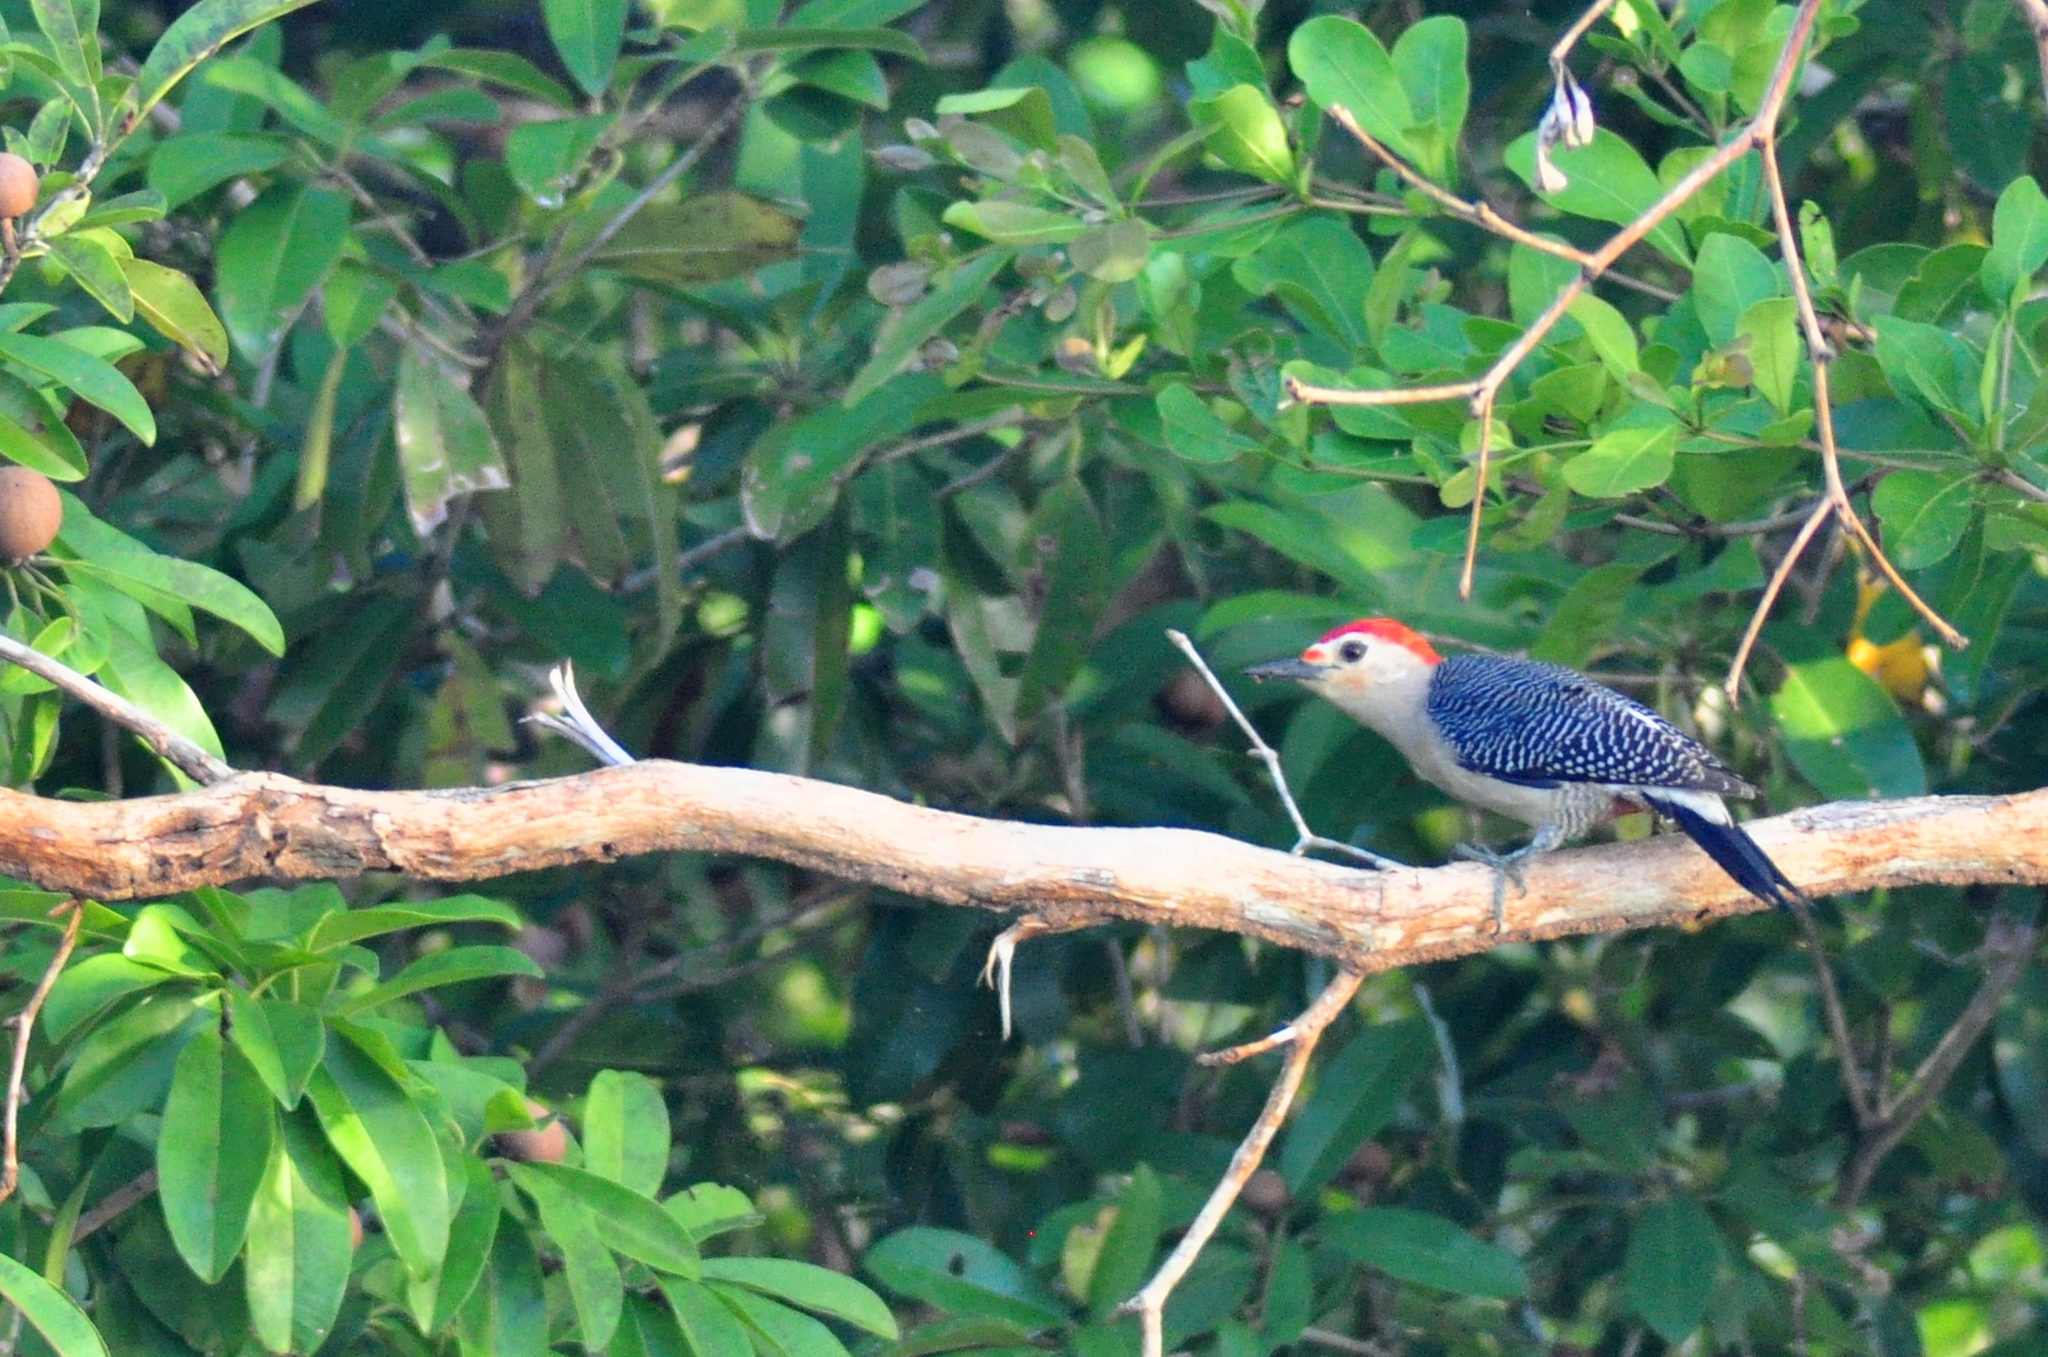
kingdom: Animalia
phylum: Chordata
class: Aves
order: Piciformes
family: Picidae
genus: Melanerpes
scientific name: Melanerpes aurifrons
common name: Golden-fronted woodpecker
